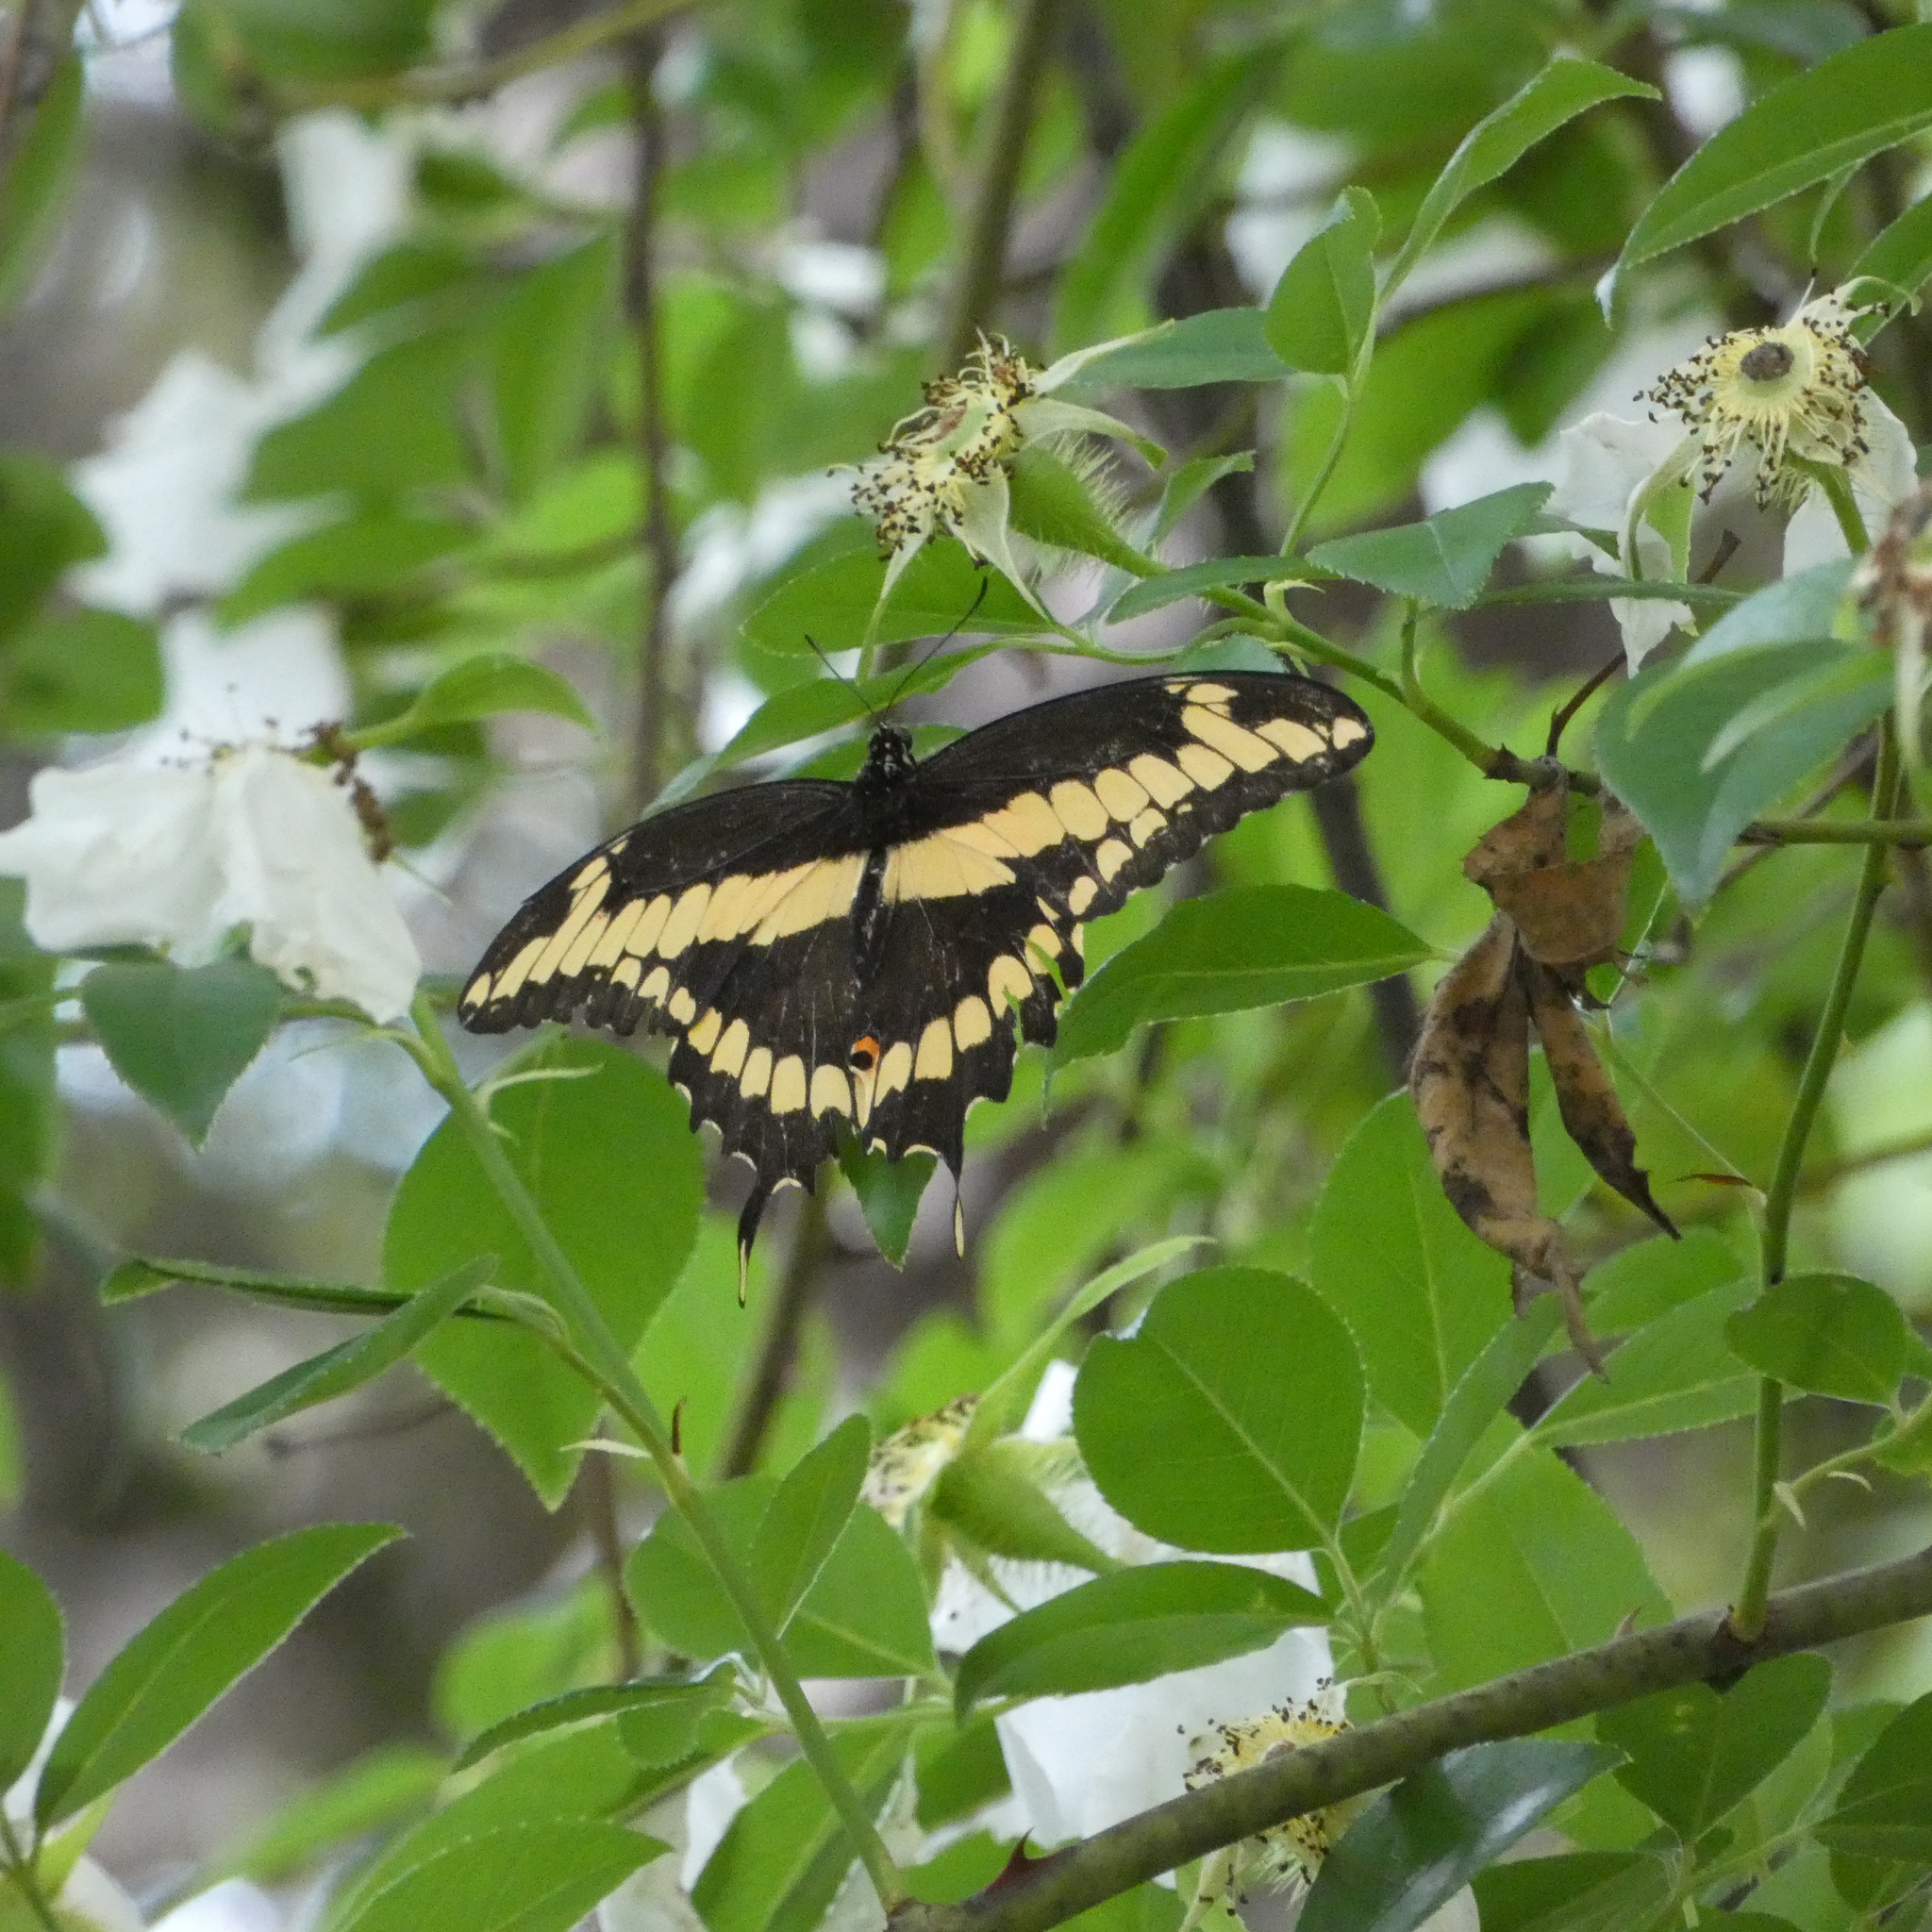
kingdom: Animalia
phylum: Arthropoda
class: Insecta
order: Lepidoptera
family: Papilionidae
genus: Papilio
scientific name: Papilio cresphontes
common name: Giant swallowtail
